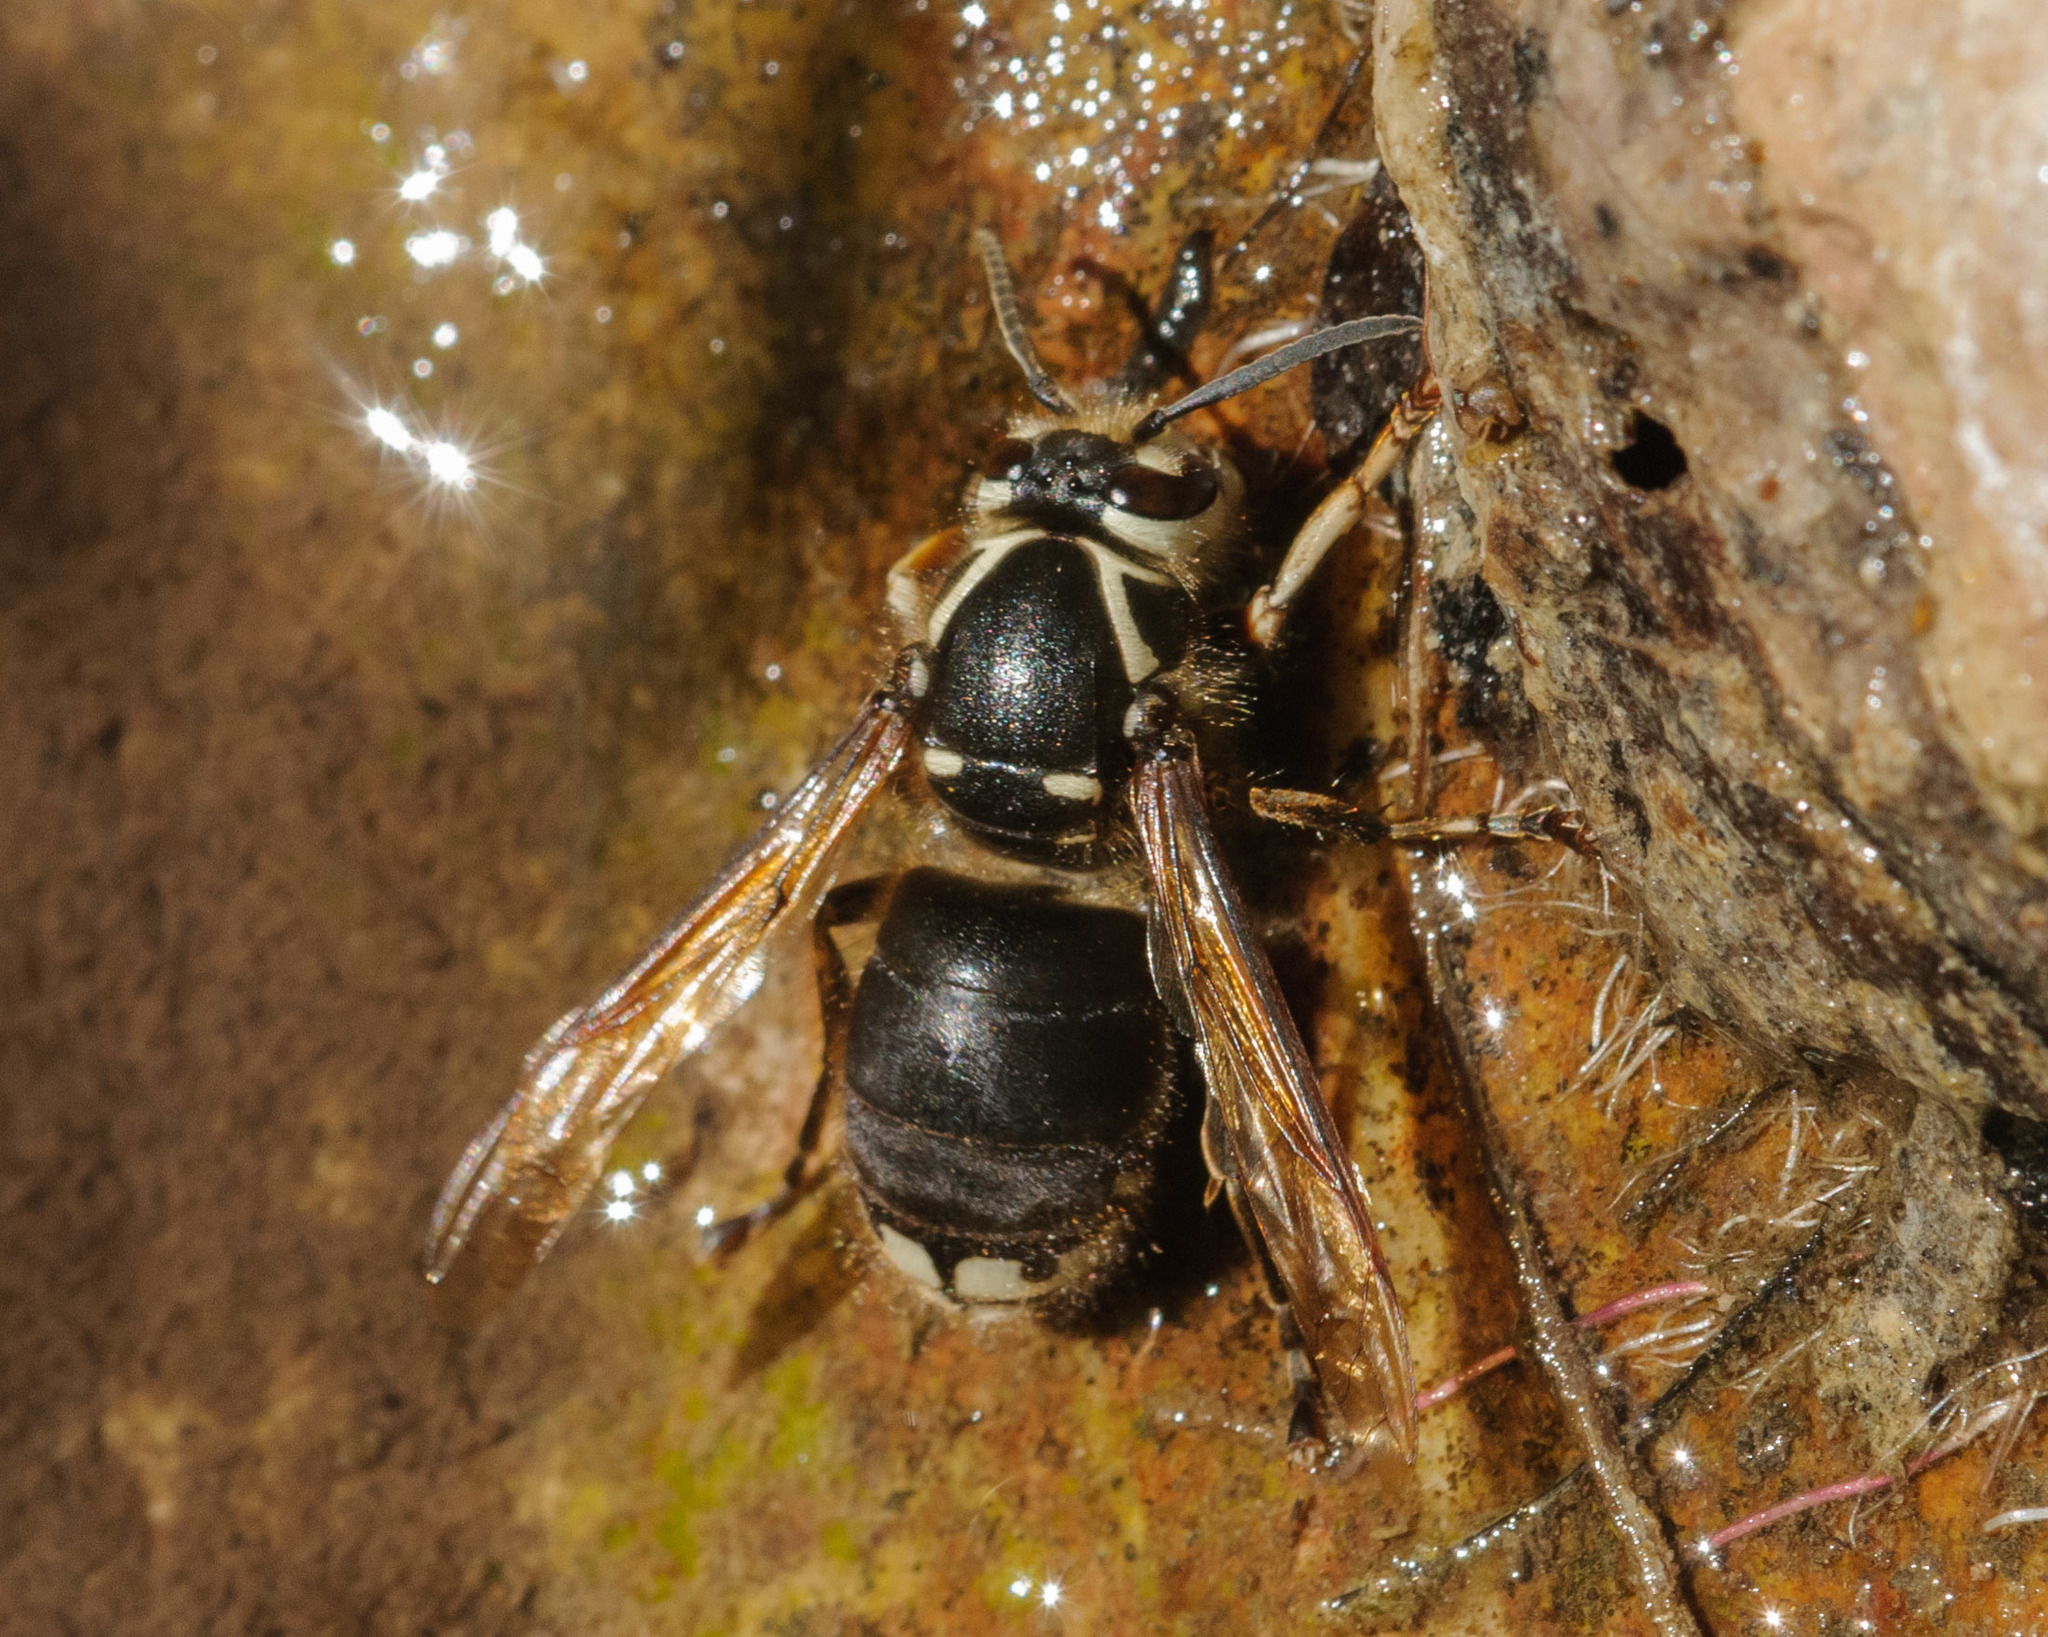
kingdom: Animalia
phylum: Arthropoda
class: Insecta
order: Hymenoptera
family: Vespidae
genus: Dolichovespula
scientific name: Dolichovespula maculata
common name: Bald-faced hornet
